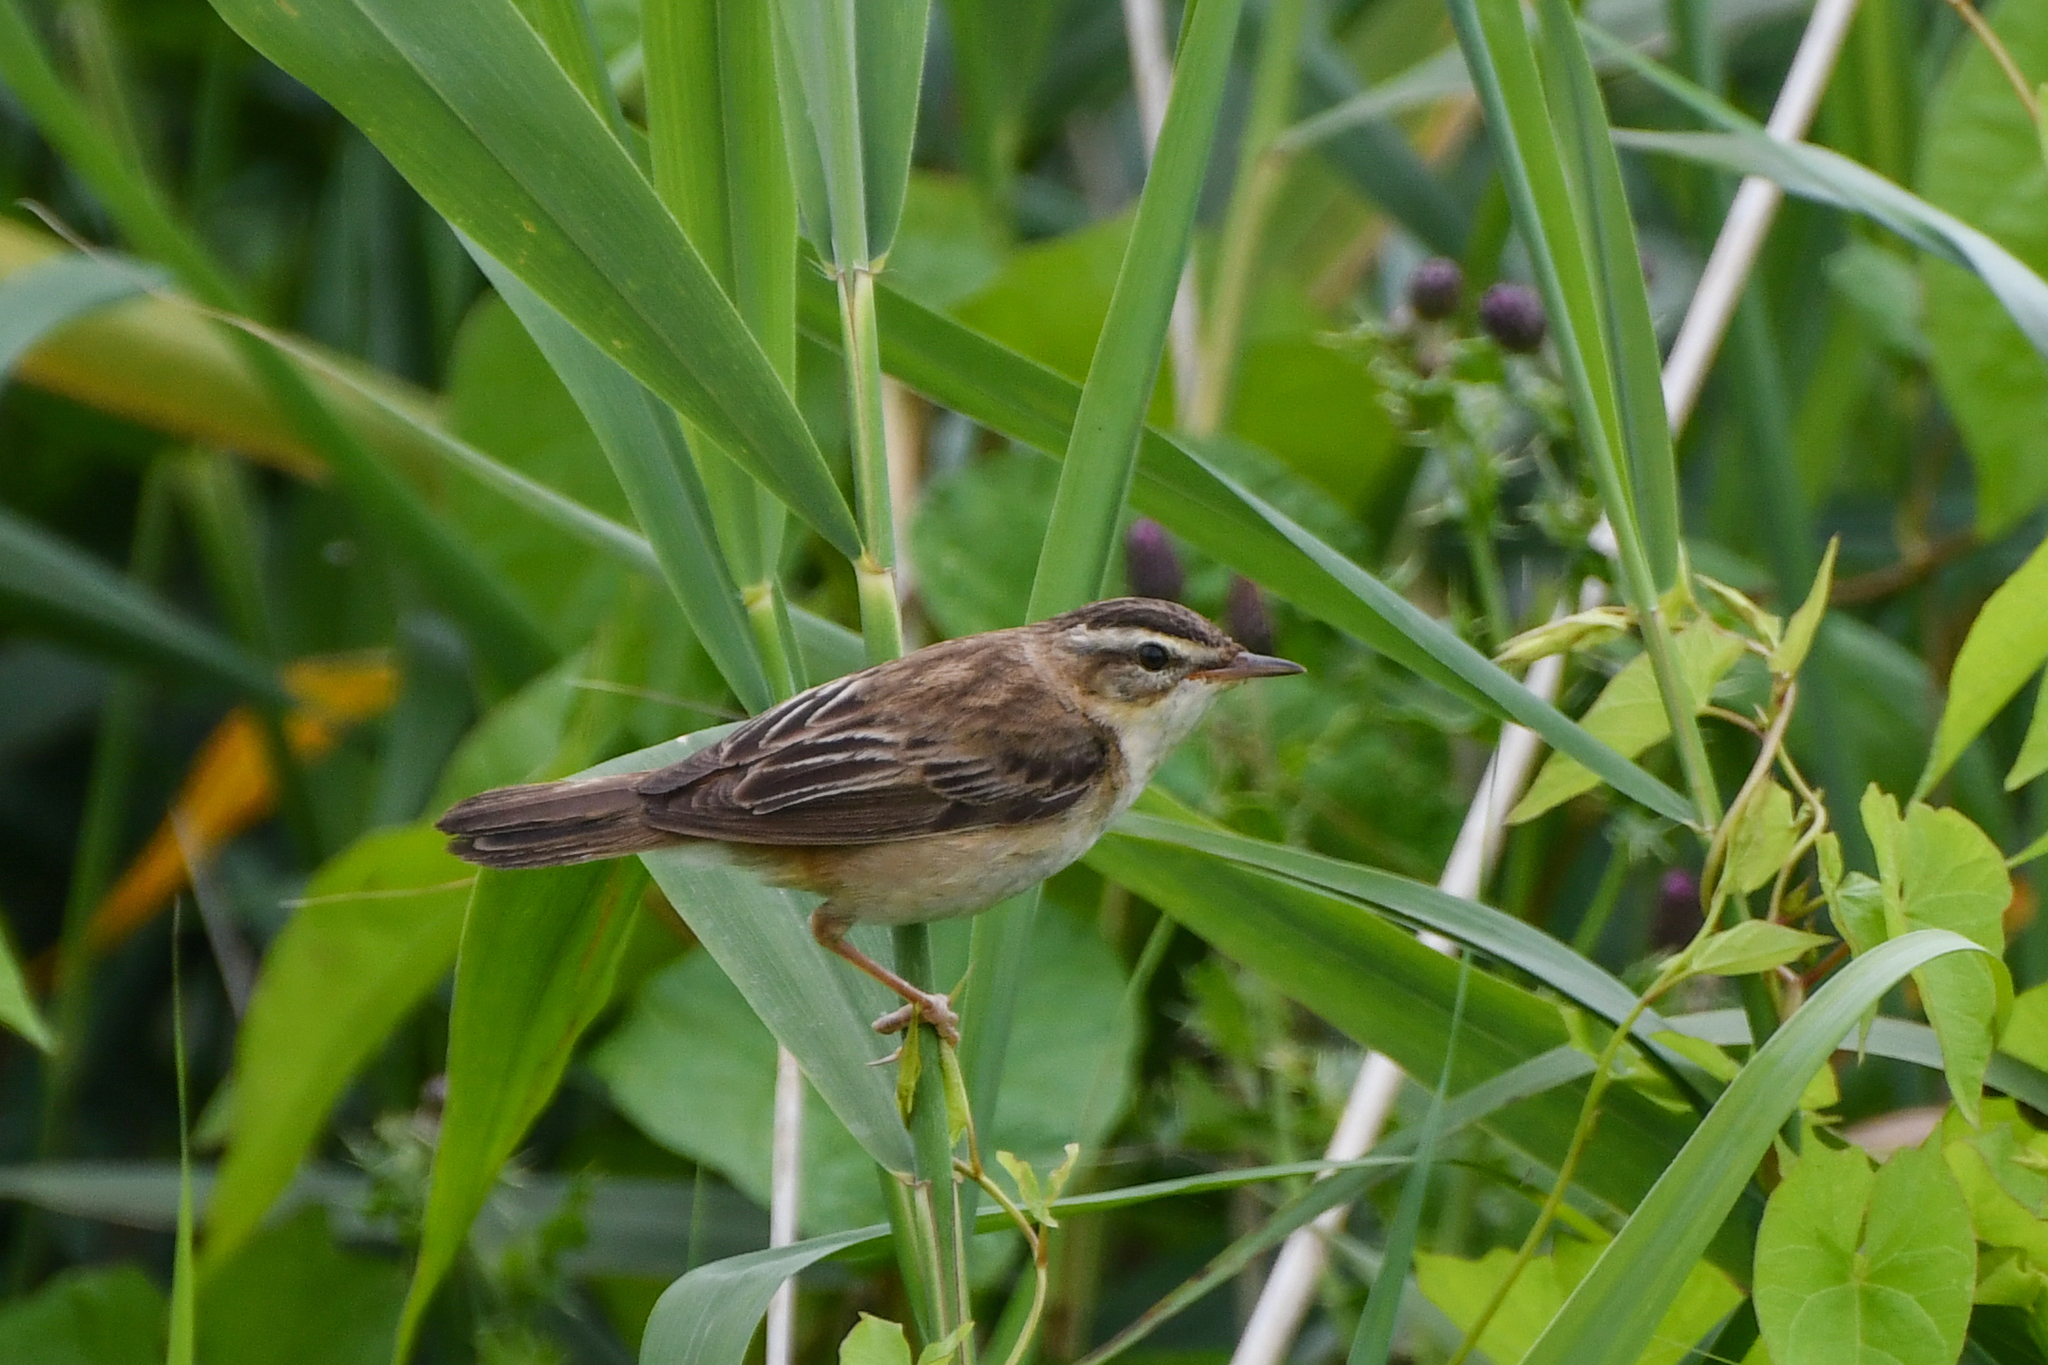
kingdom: Animalia
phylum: Chordata
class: Aves
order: Passeriformes
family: Acrocephalidae
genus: Acrocephalus
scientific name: Acrocephalus schoenobaenus
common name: Sedge warbler
